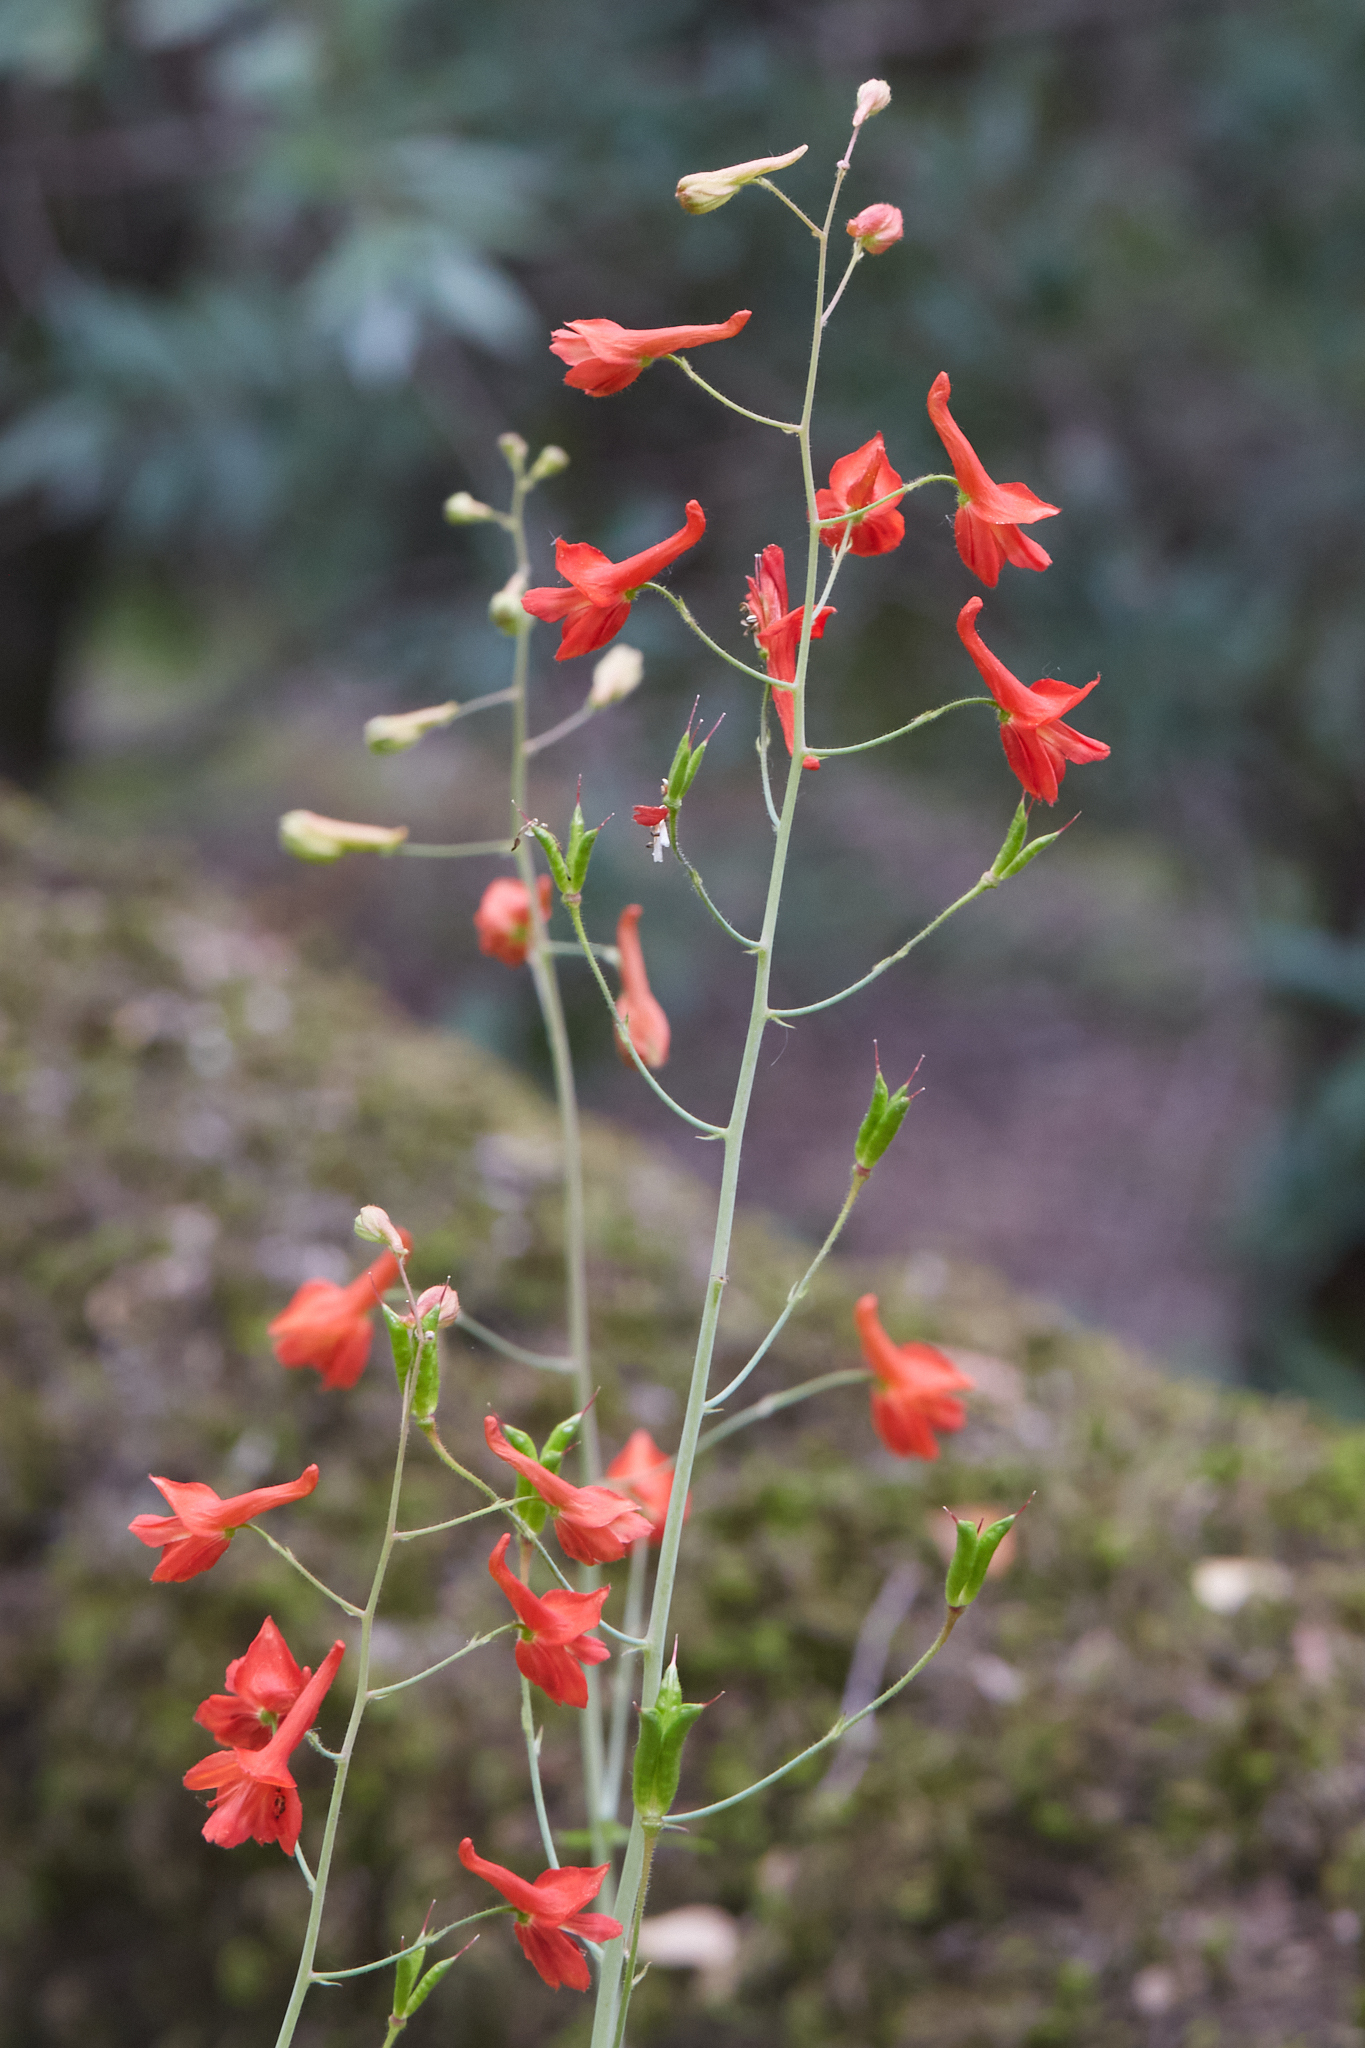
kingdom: Plantae
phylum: Tracheophyta
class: Magnoliopsida
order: Ranunculales
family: Ranunculaceae
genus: Delphinium
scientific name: Delphinium nudicaule
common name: Red larkspur
